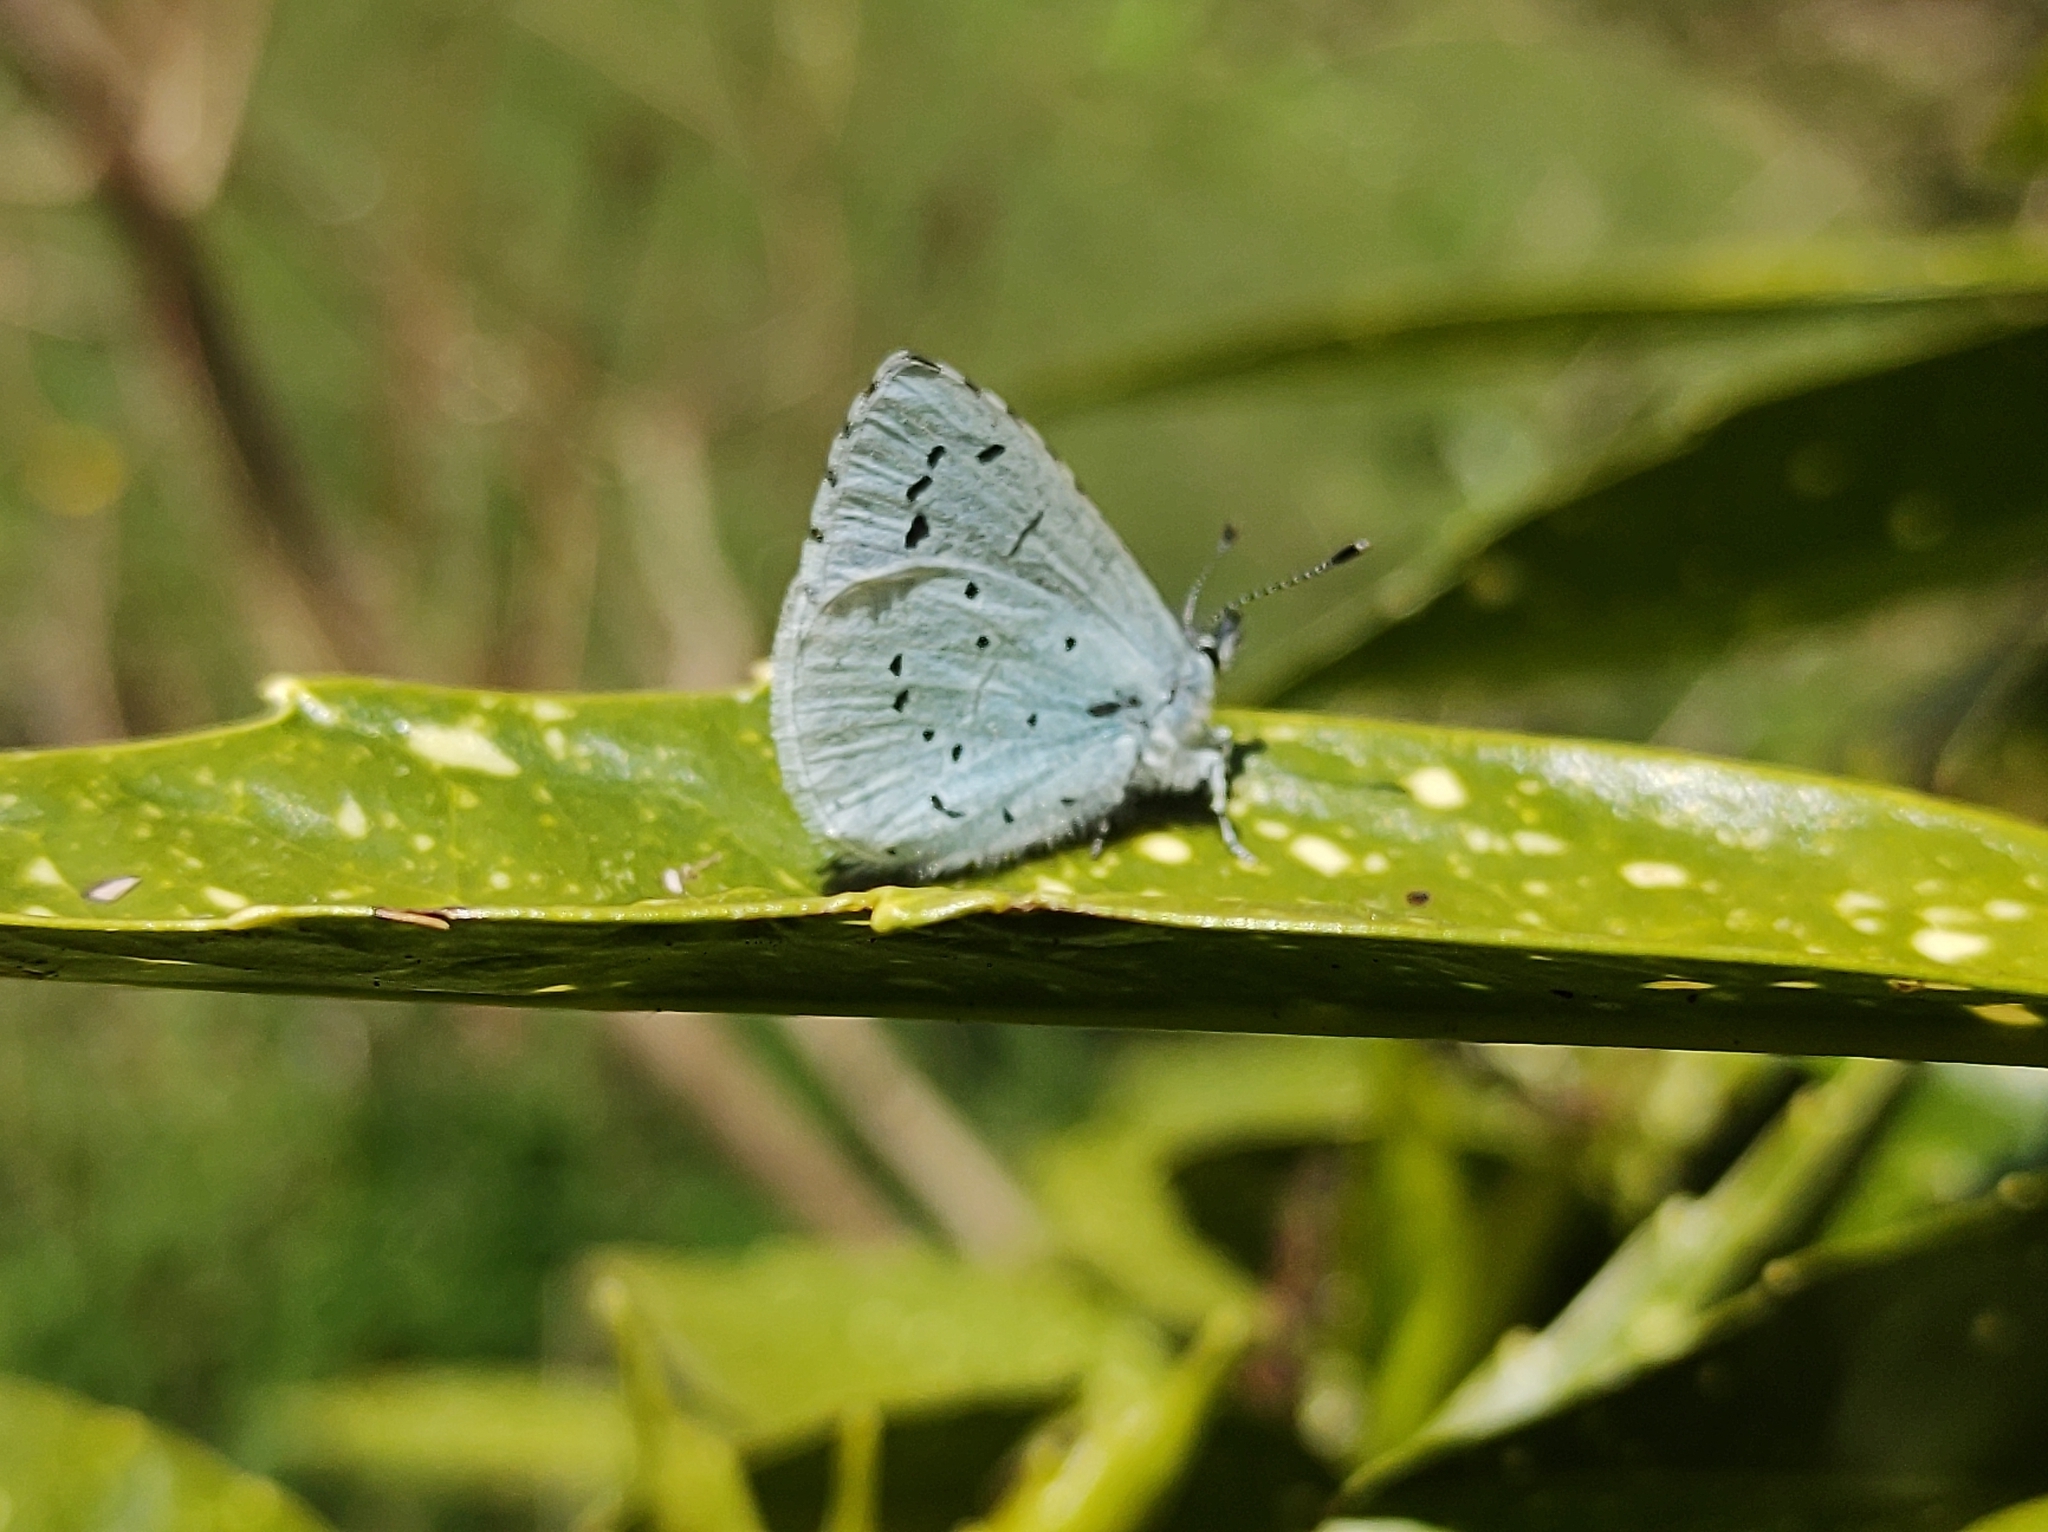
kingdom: Animalia
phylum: Arthropoda
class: Insecta
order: Lepidoptera
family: Lycaenidae
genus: Celastrina
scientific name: Celastrina argiolus
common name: Holly blue
